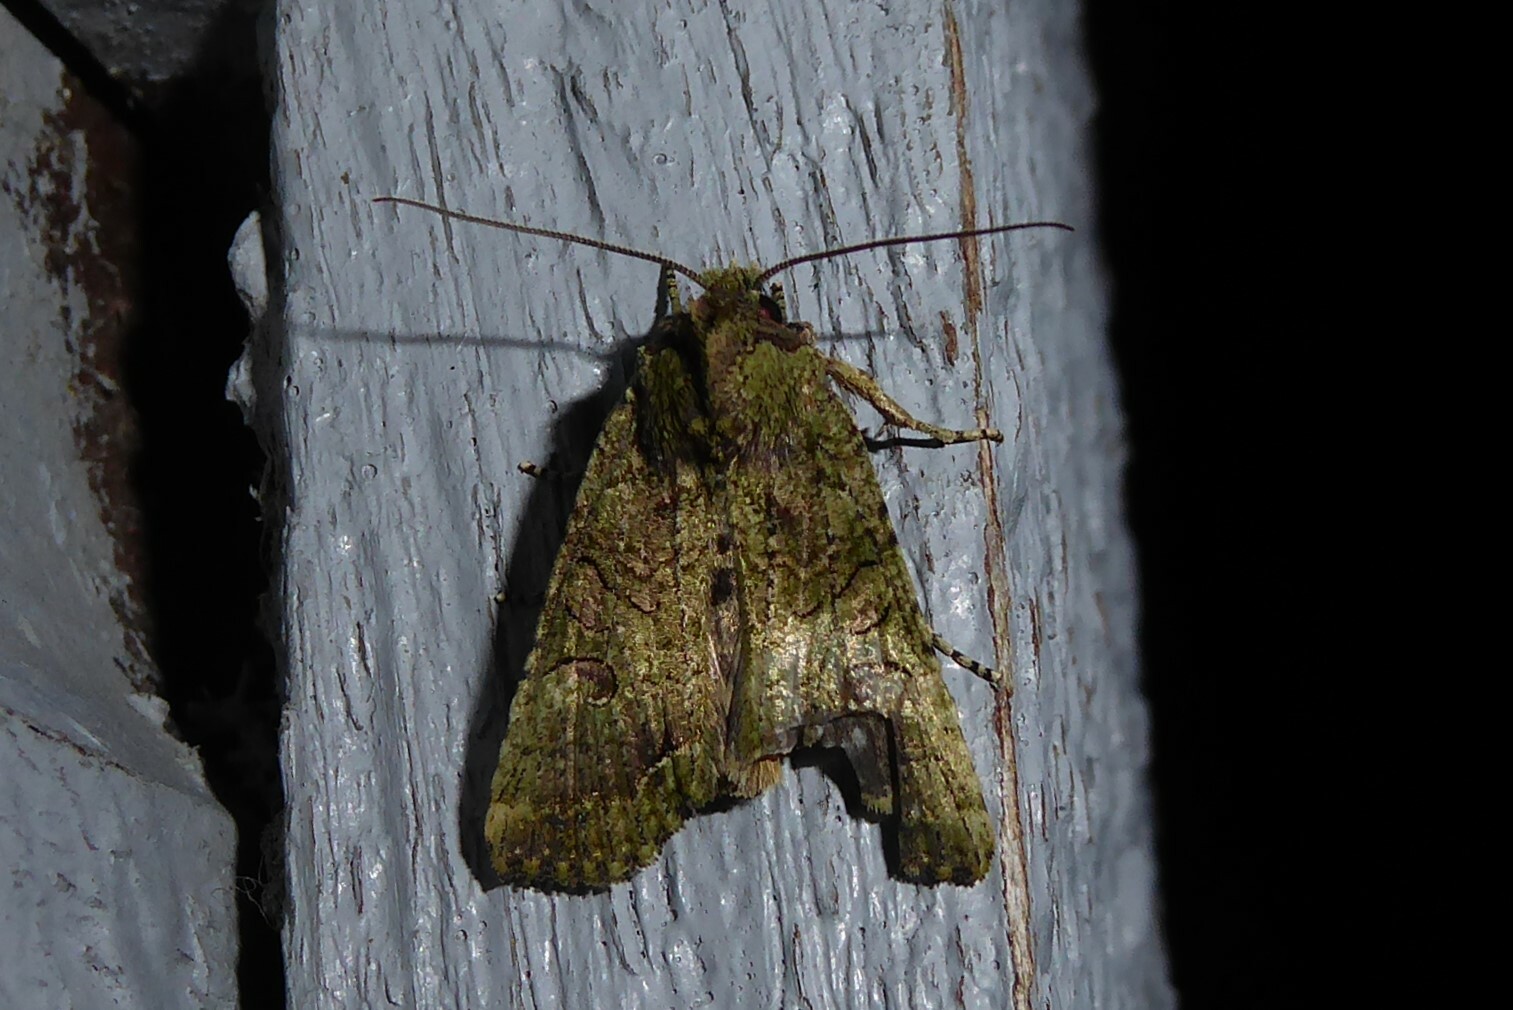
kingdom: Animalia
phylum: Arthropoda
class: Insecta
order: Lepidoptera
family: Noctuidae
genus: Meterana
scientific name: Meterana levis
